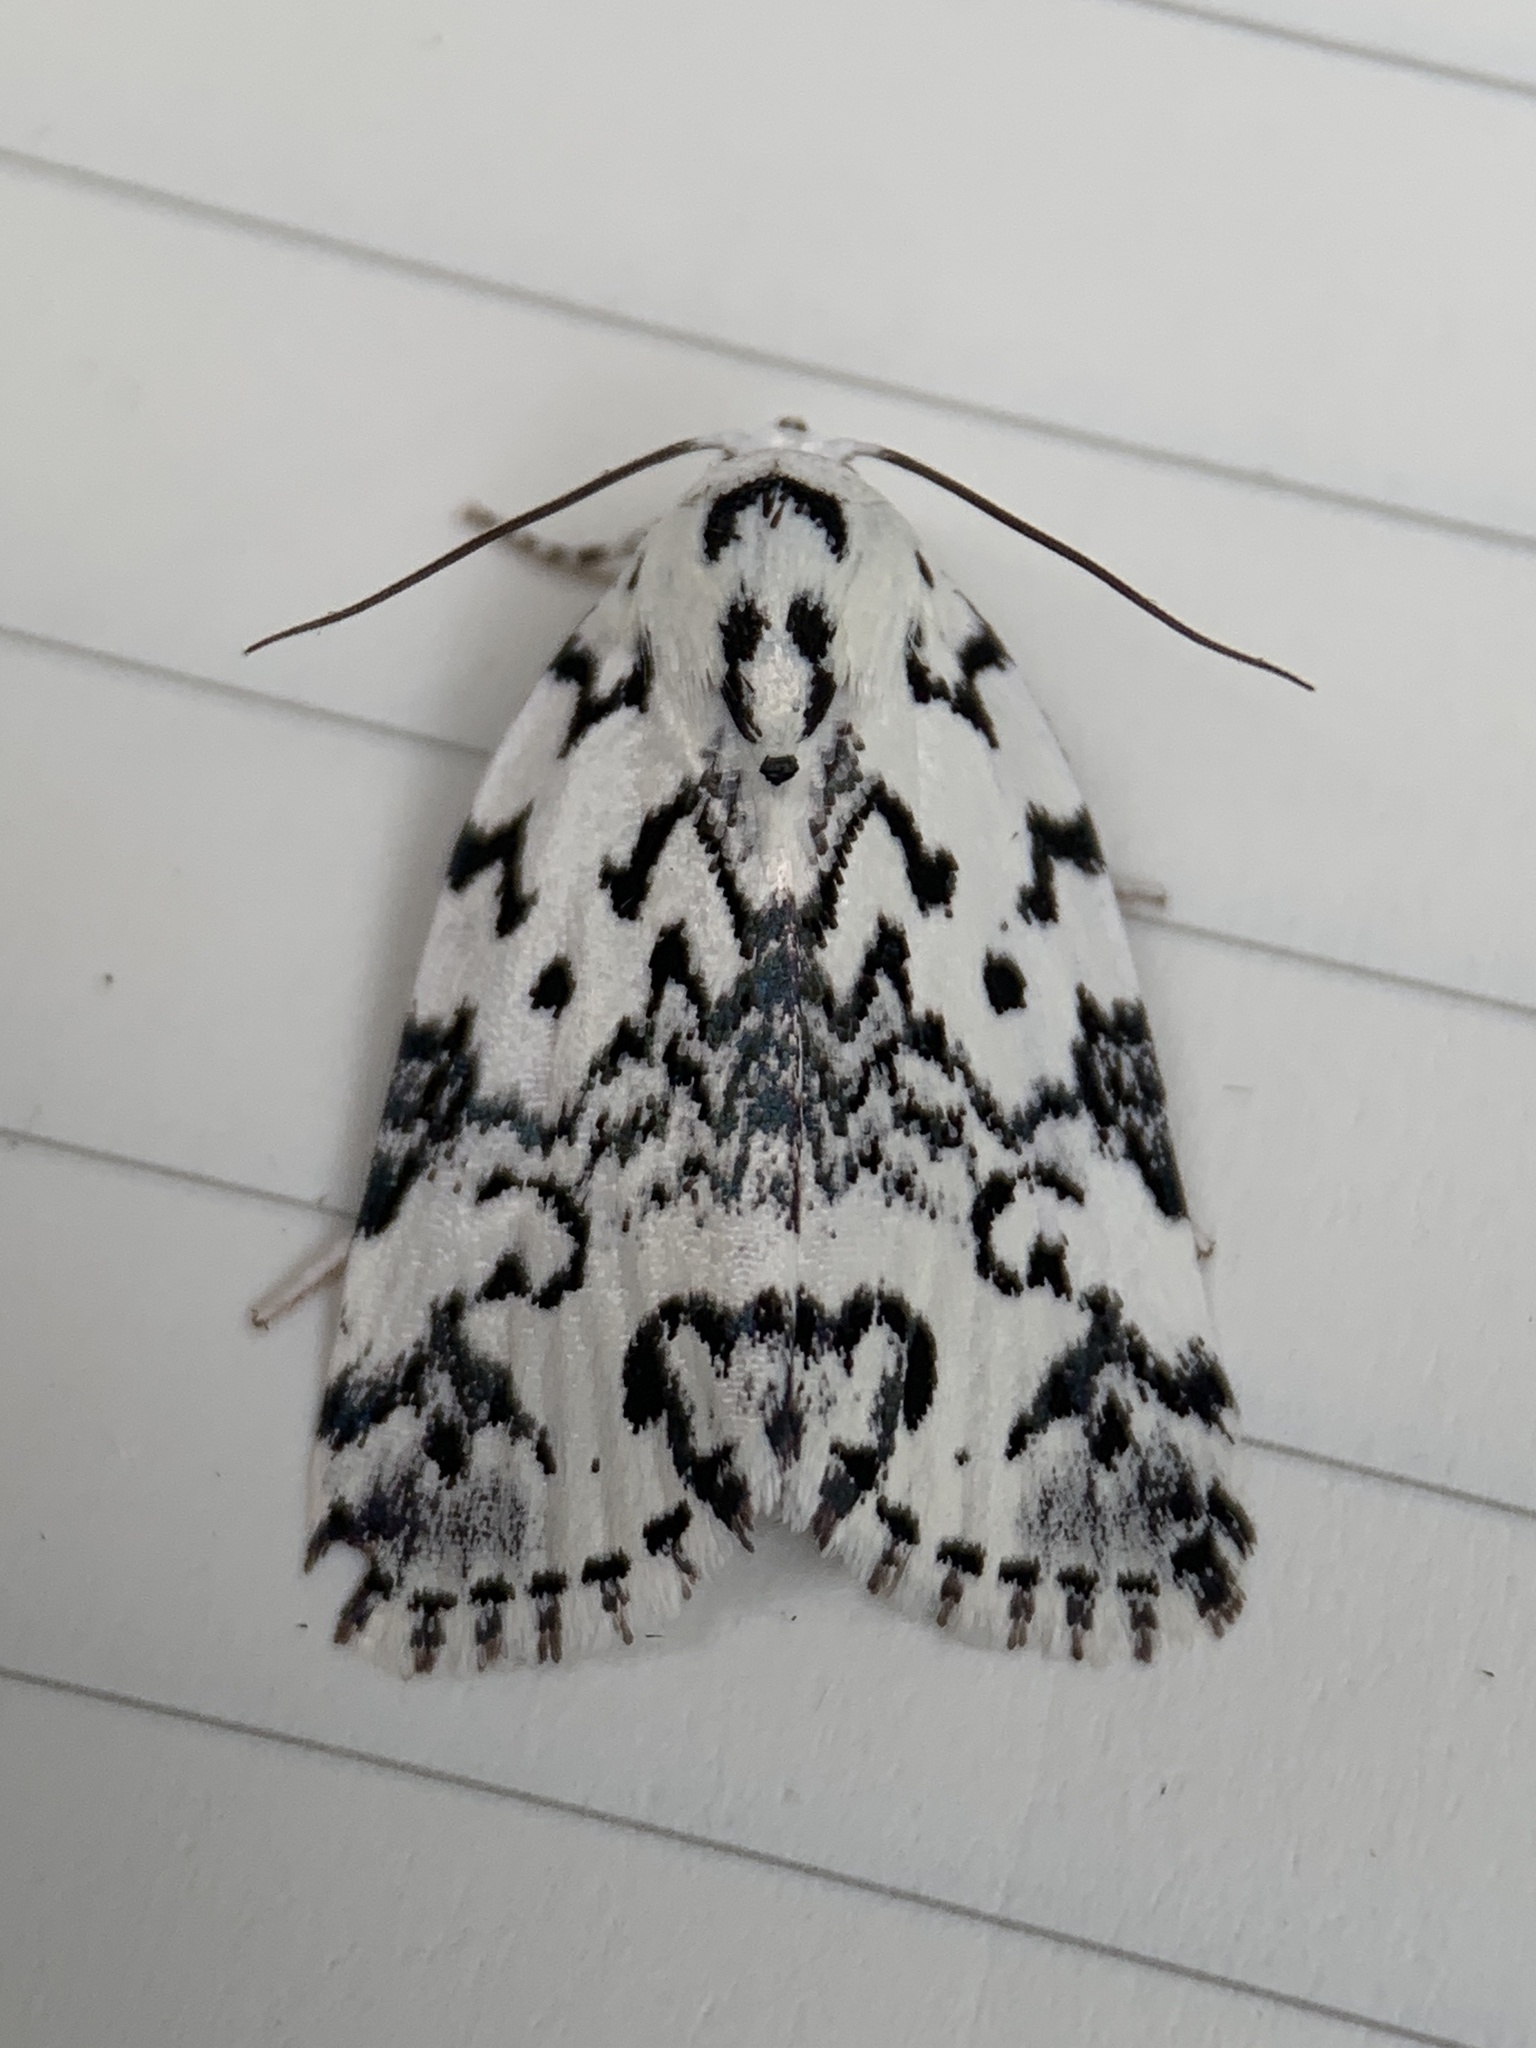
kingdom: Animalia
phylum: Arthropoda
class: Insecta
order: Lepidoptera
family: Noctuidae
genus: Polygrammate
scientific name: Polygrammate hebraeicum
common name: Hebrew moth
